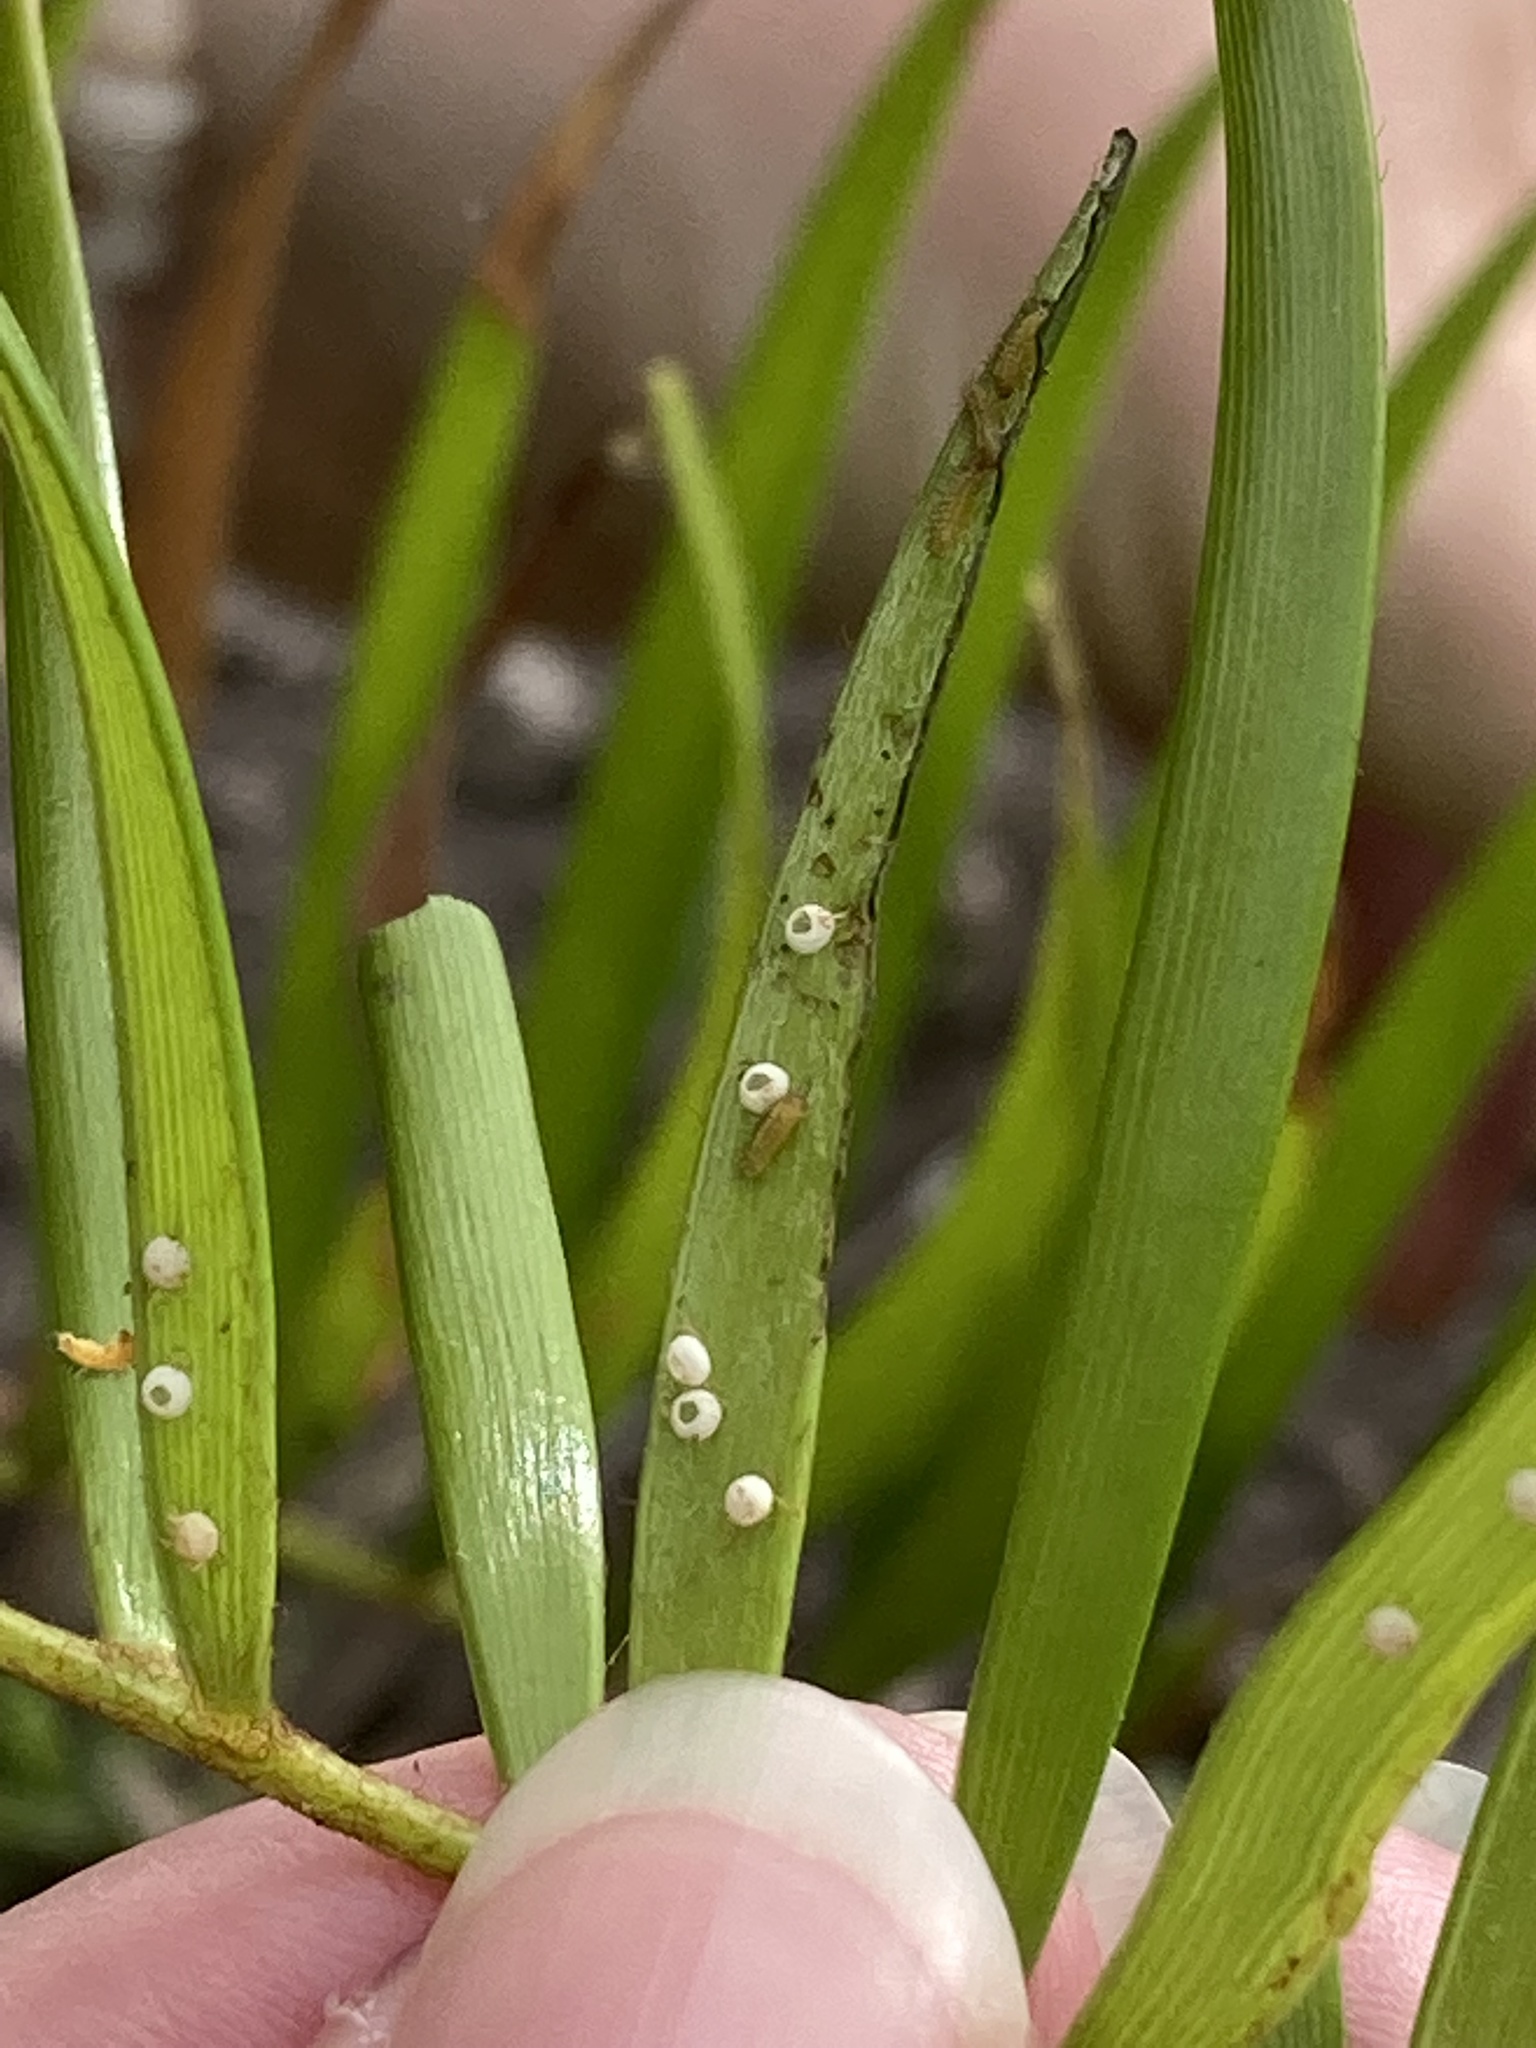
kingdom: Animalia
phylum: Arthropoda
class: Insecta
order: Lepidoptera
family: Lycaenidae
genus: Eumaeus
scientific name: Eumaeus atala
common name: Atala
